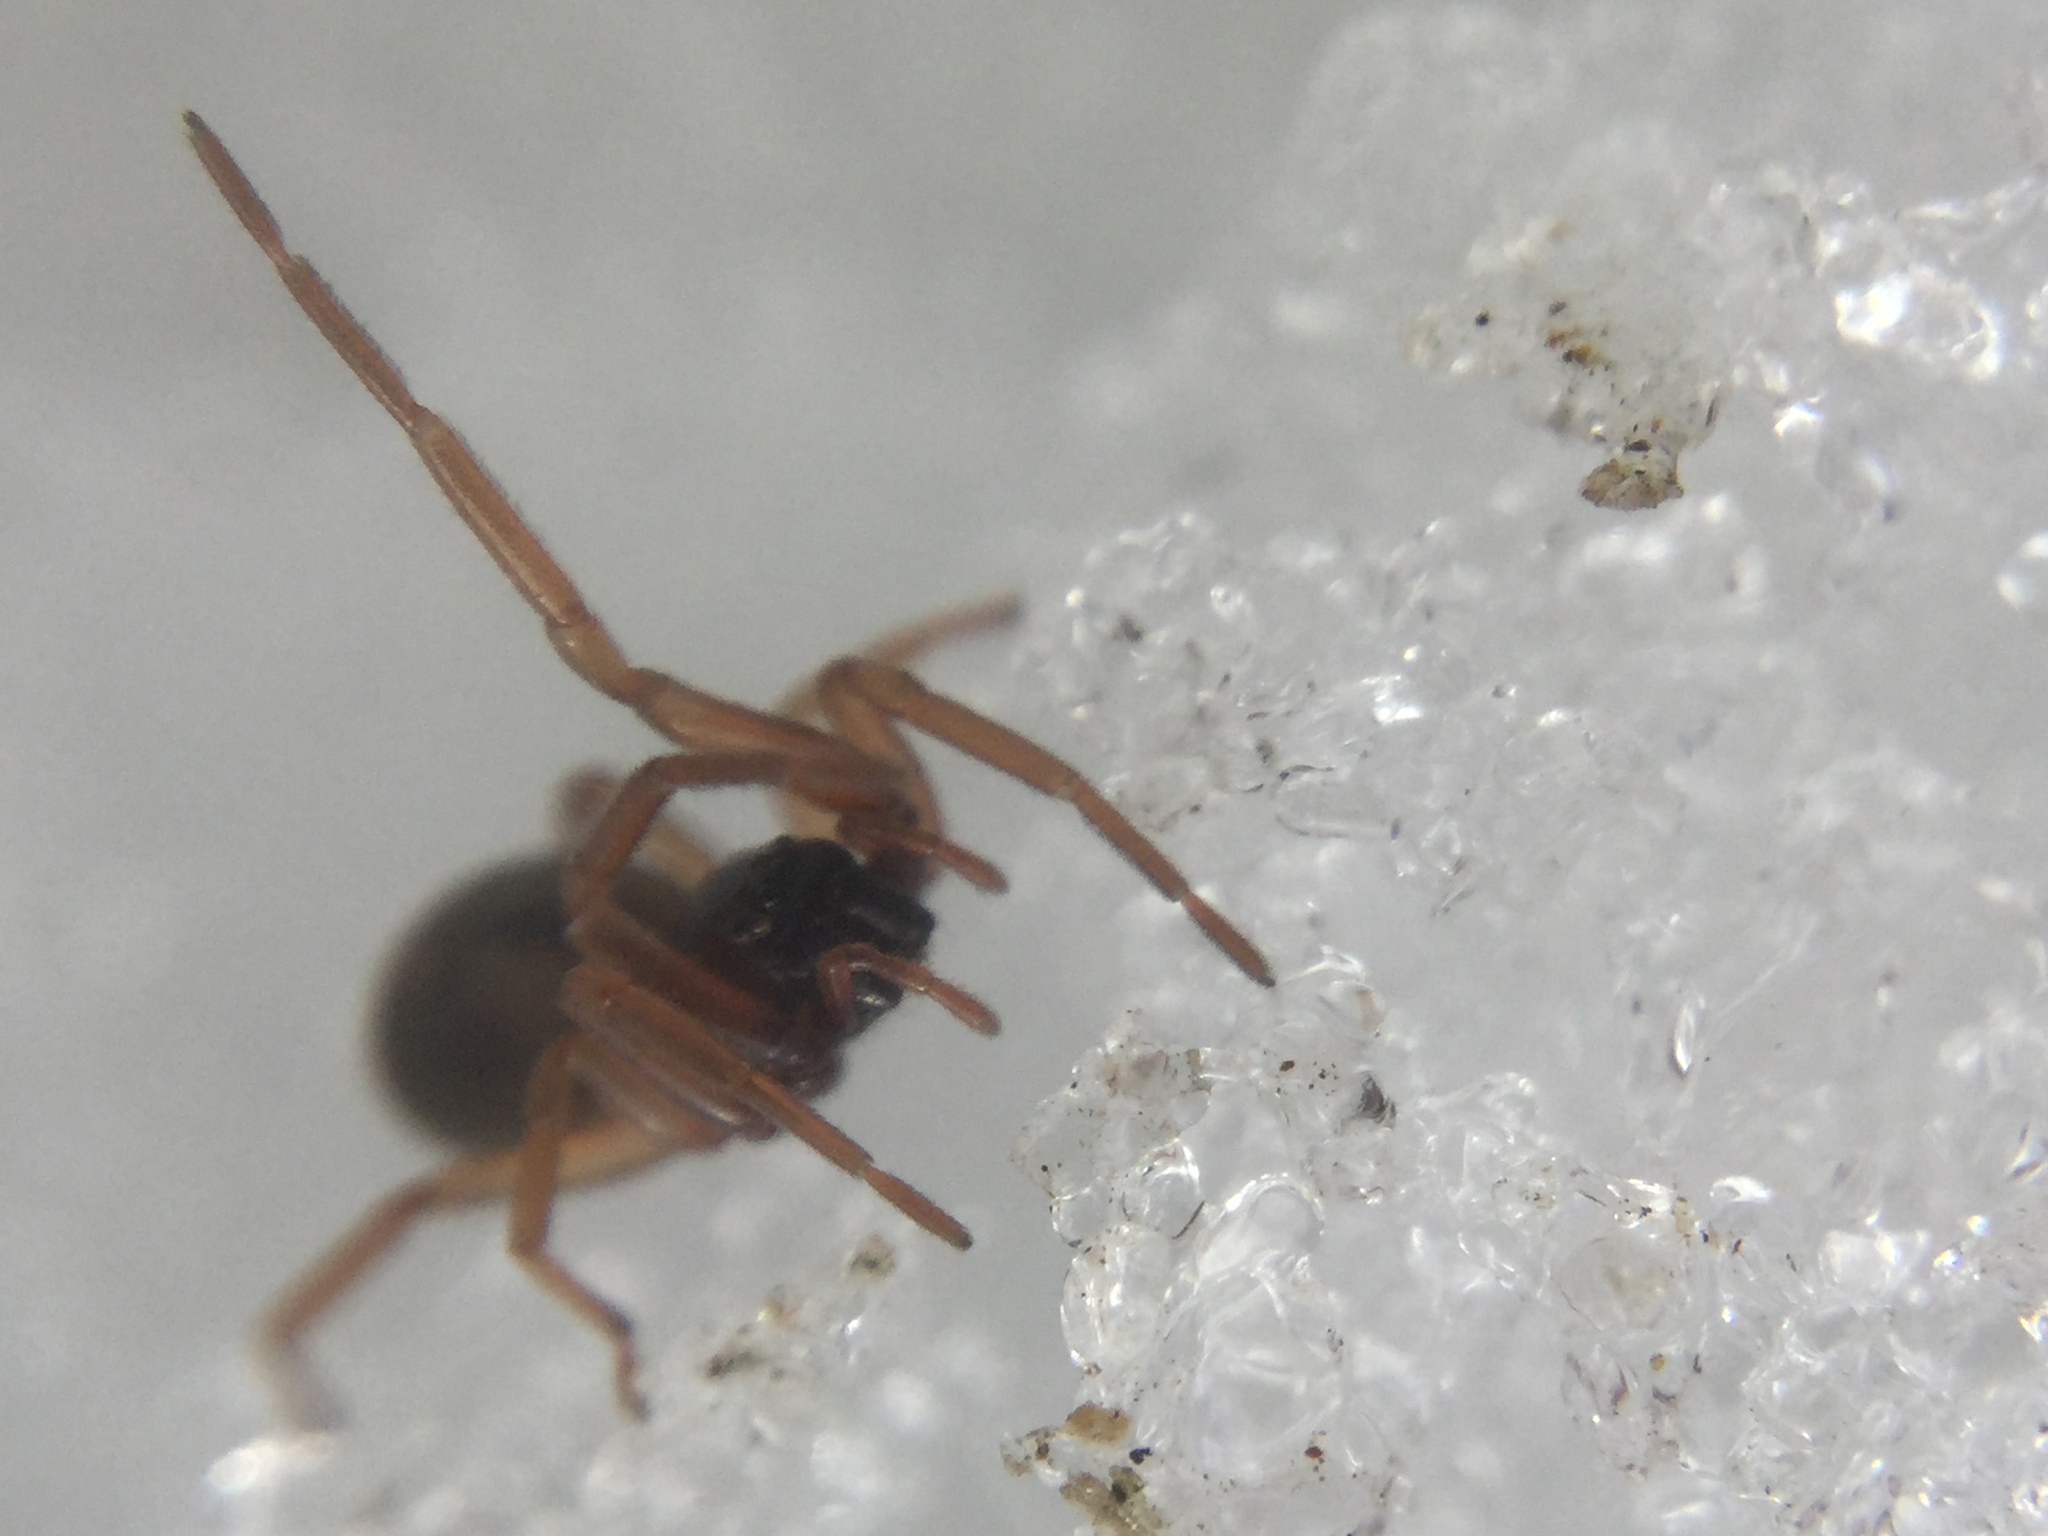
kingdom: Animalia
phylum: Arthropoda
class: Arachnida
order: Araneae
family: Trachelidae
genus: Meriola
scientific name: Meriola decepta
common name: Corinnid sac spiders
